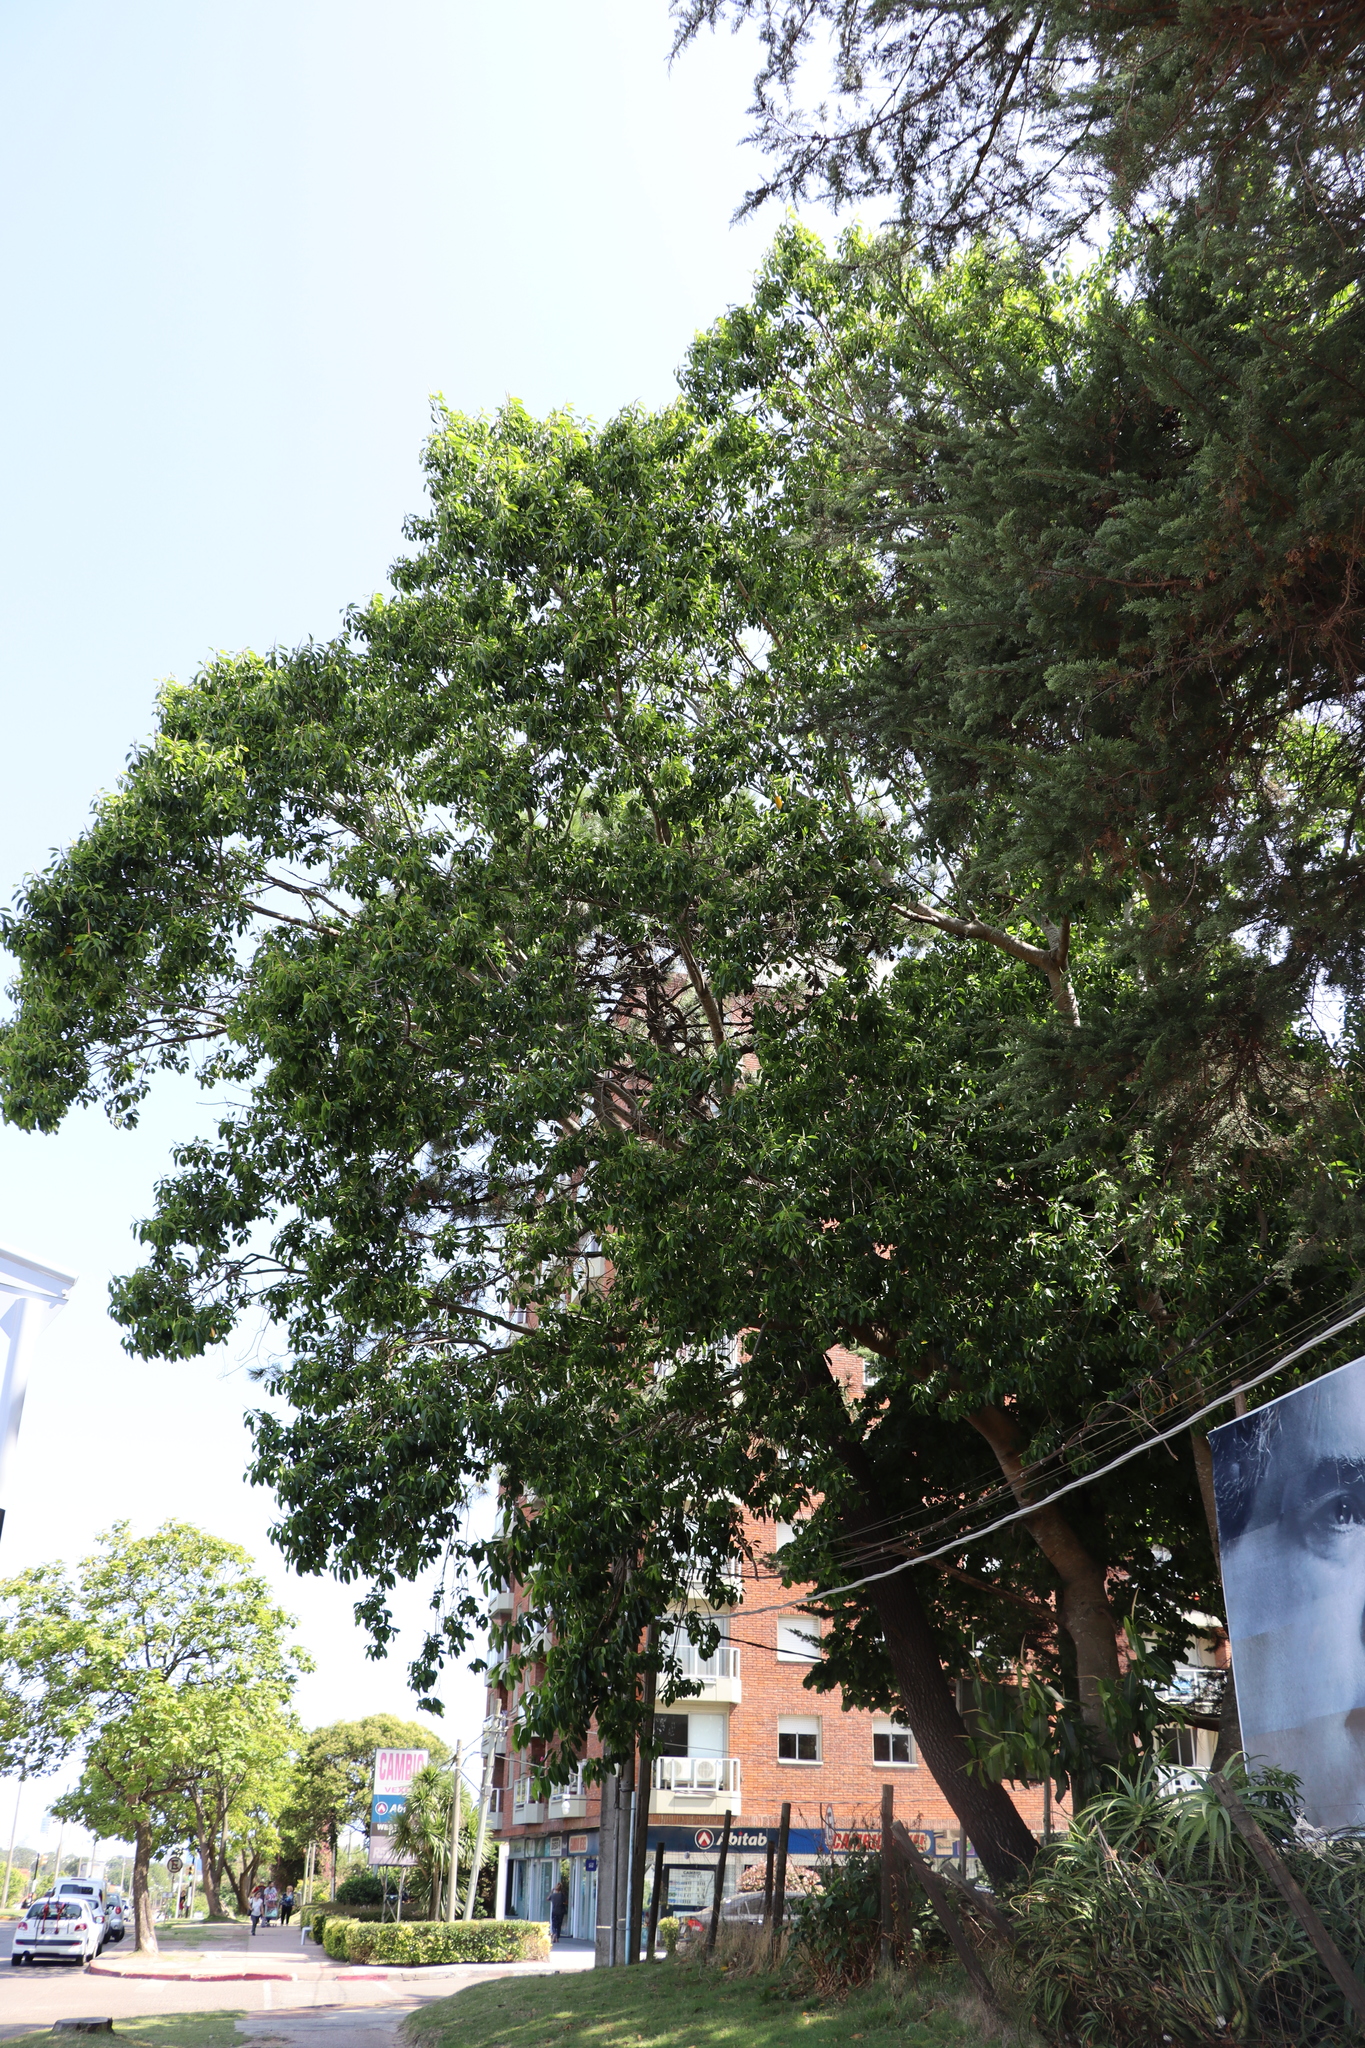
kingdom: Plantae
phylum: Tracheophyta
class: Magnoliopsida
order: Rosales
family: Moraceae
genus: Ficus
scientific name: Ficus elastica
